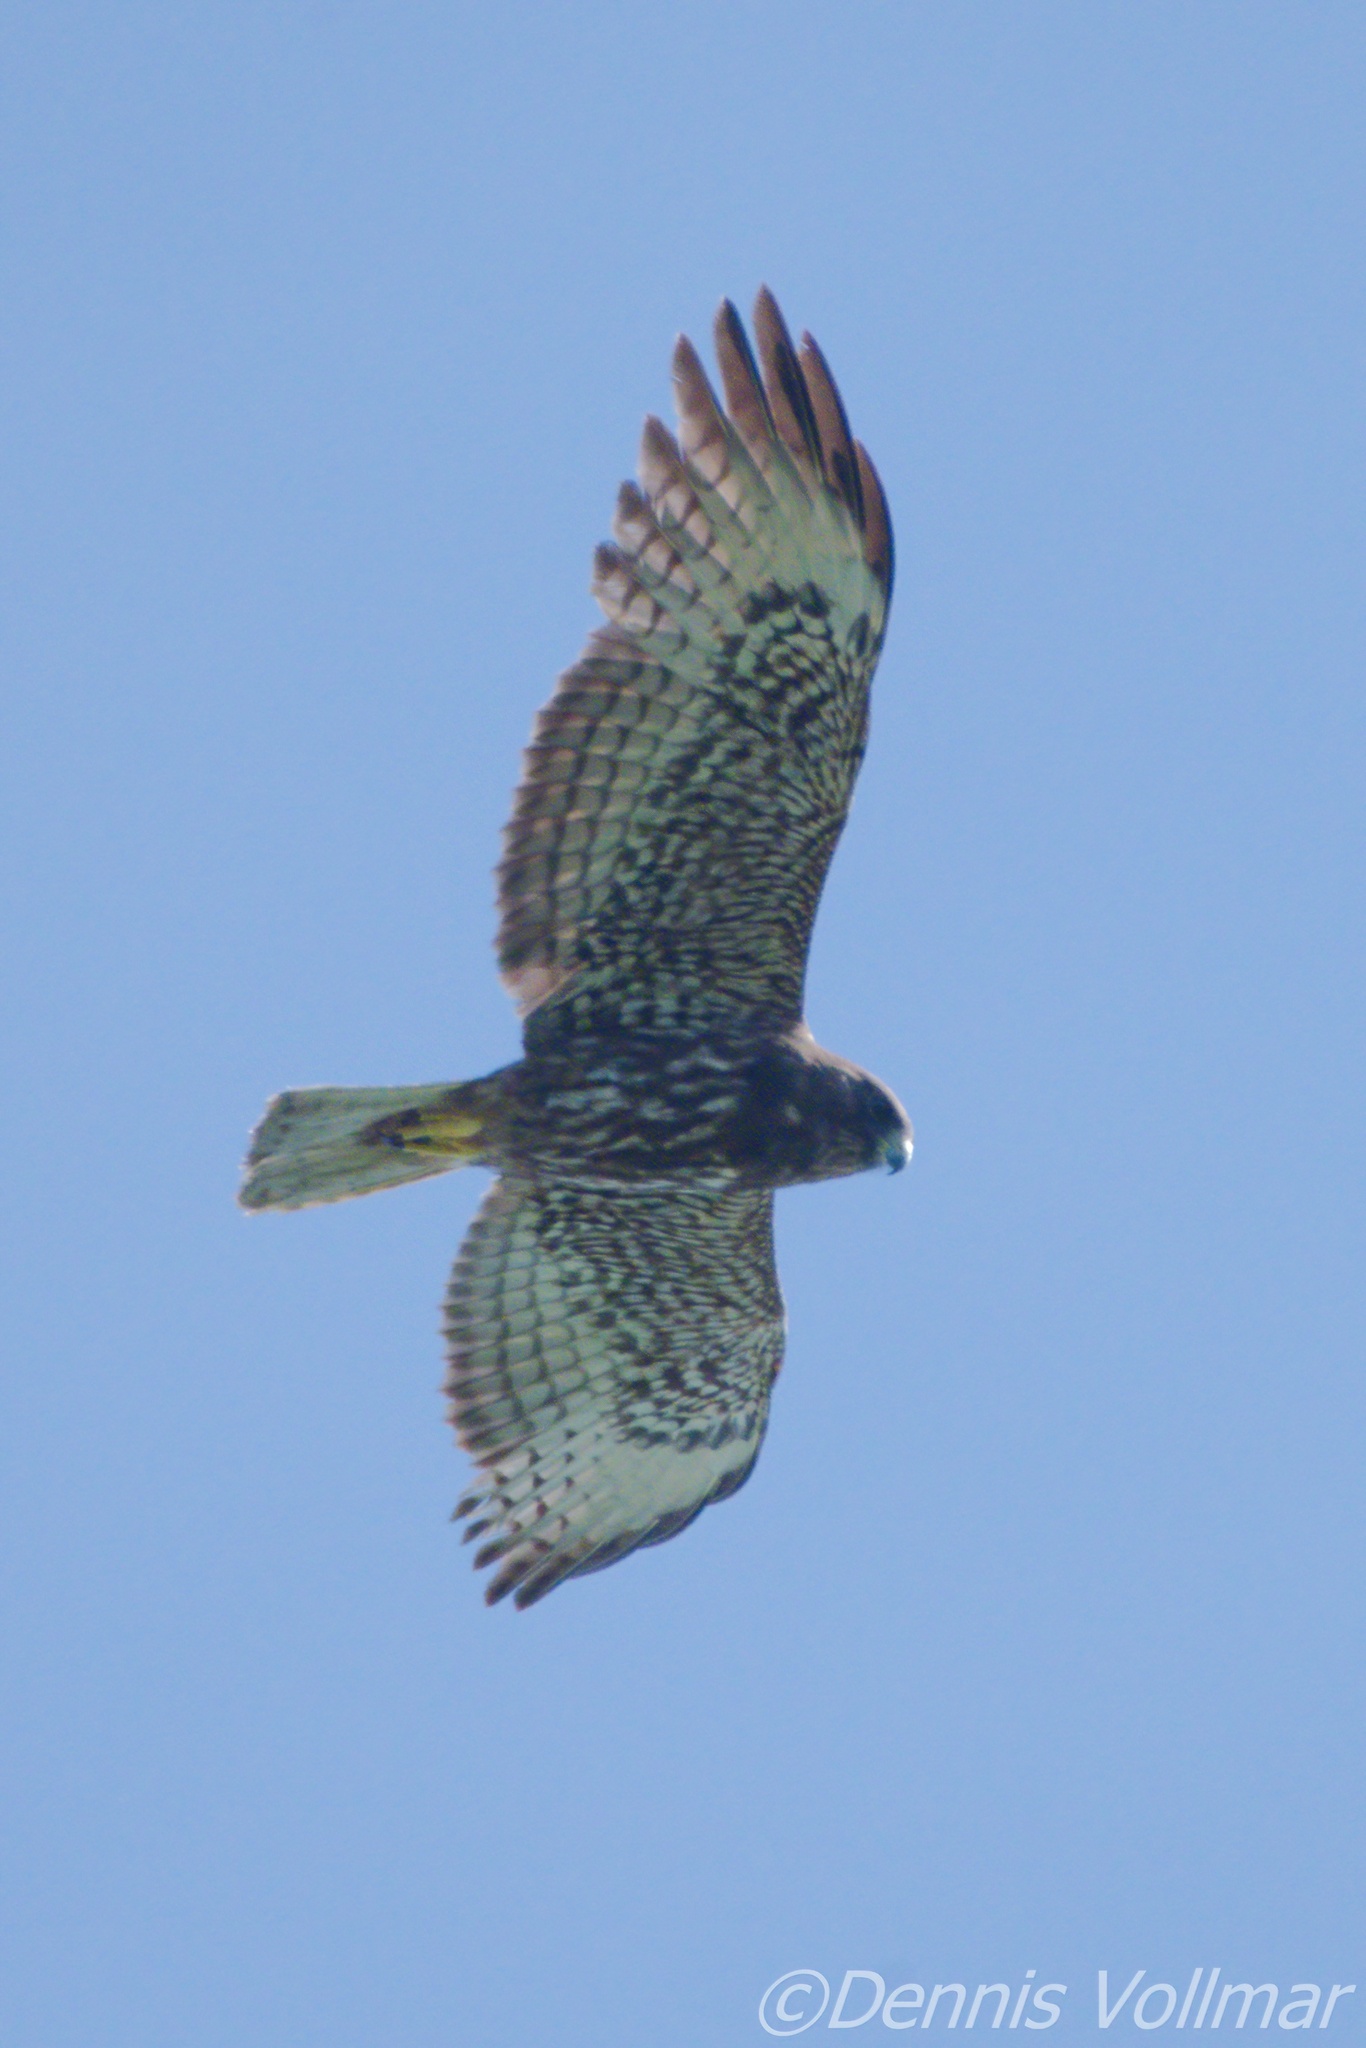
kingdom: Animalia
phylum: Chordata
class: Aves
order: Accipitriformes
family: Accipitridae
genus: Buteo
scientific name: Buteo brachyurus
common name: Short-tailed hawk
